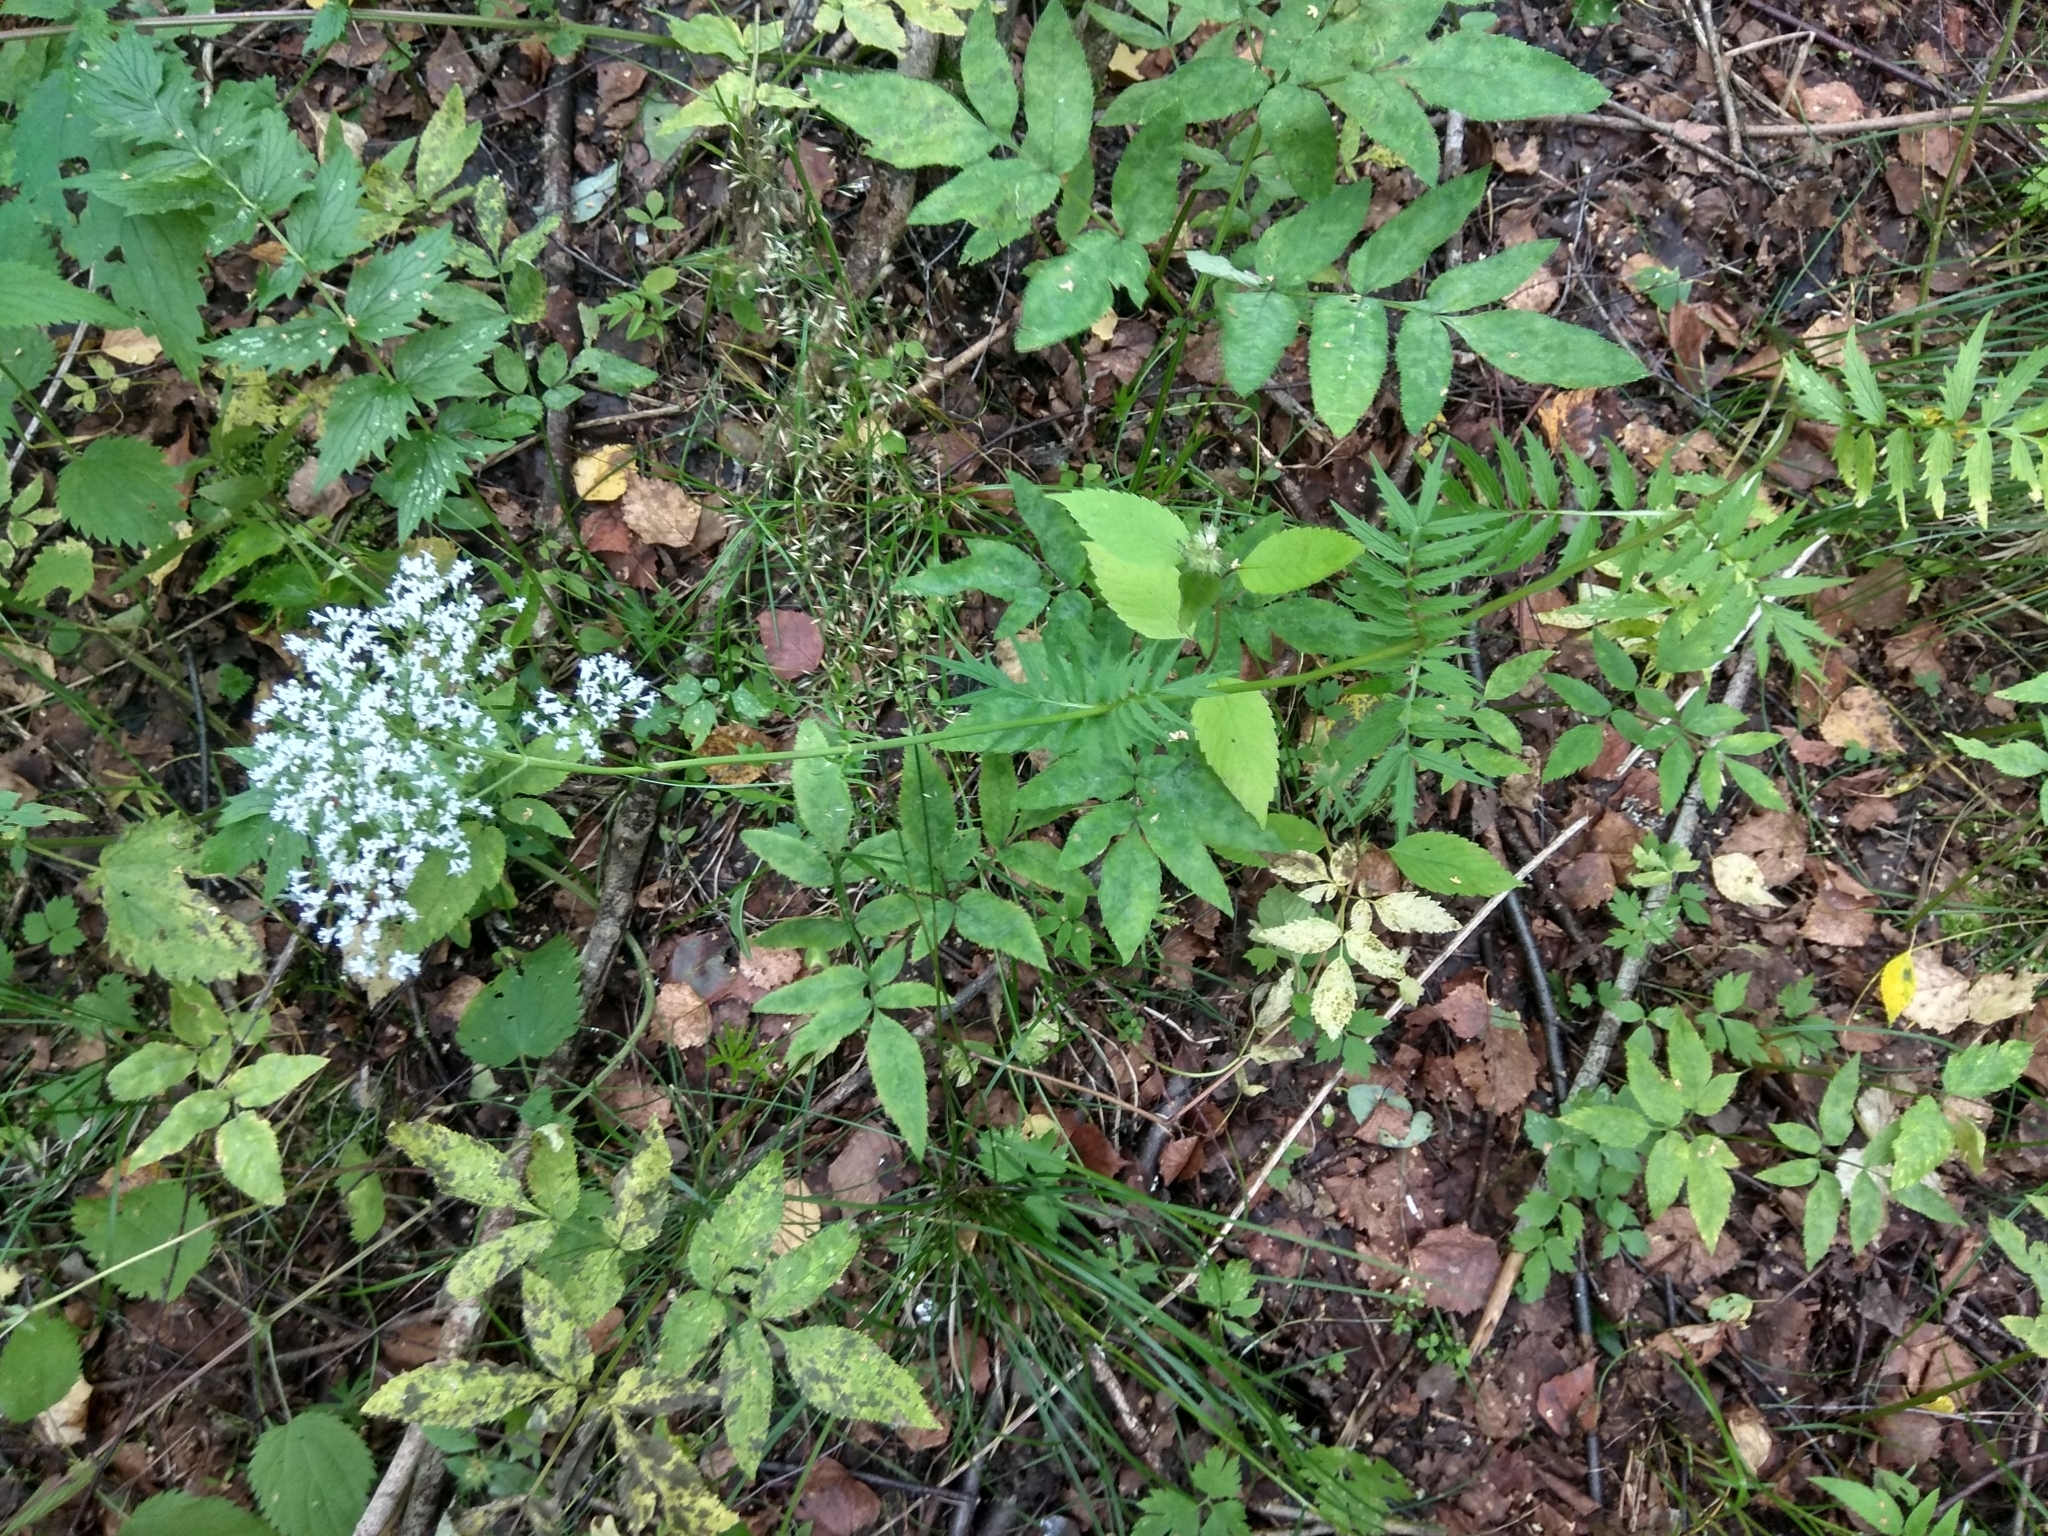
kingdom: Plantae
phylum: Tracheophyta
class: Magnoliopsida
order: Dipsacales
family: Caprifoliaceae
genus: Valeriana
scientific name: Valeriana officinalis
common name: Common valerian
